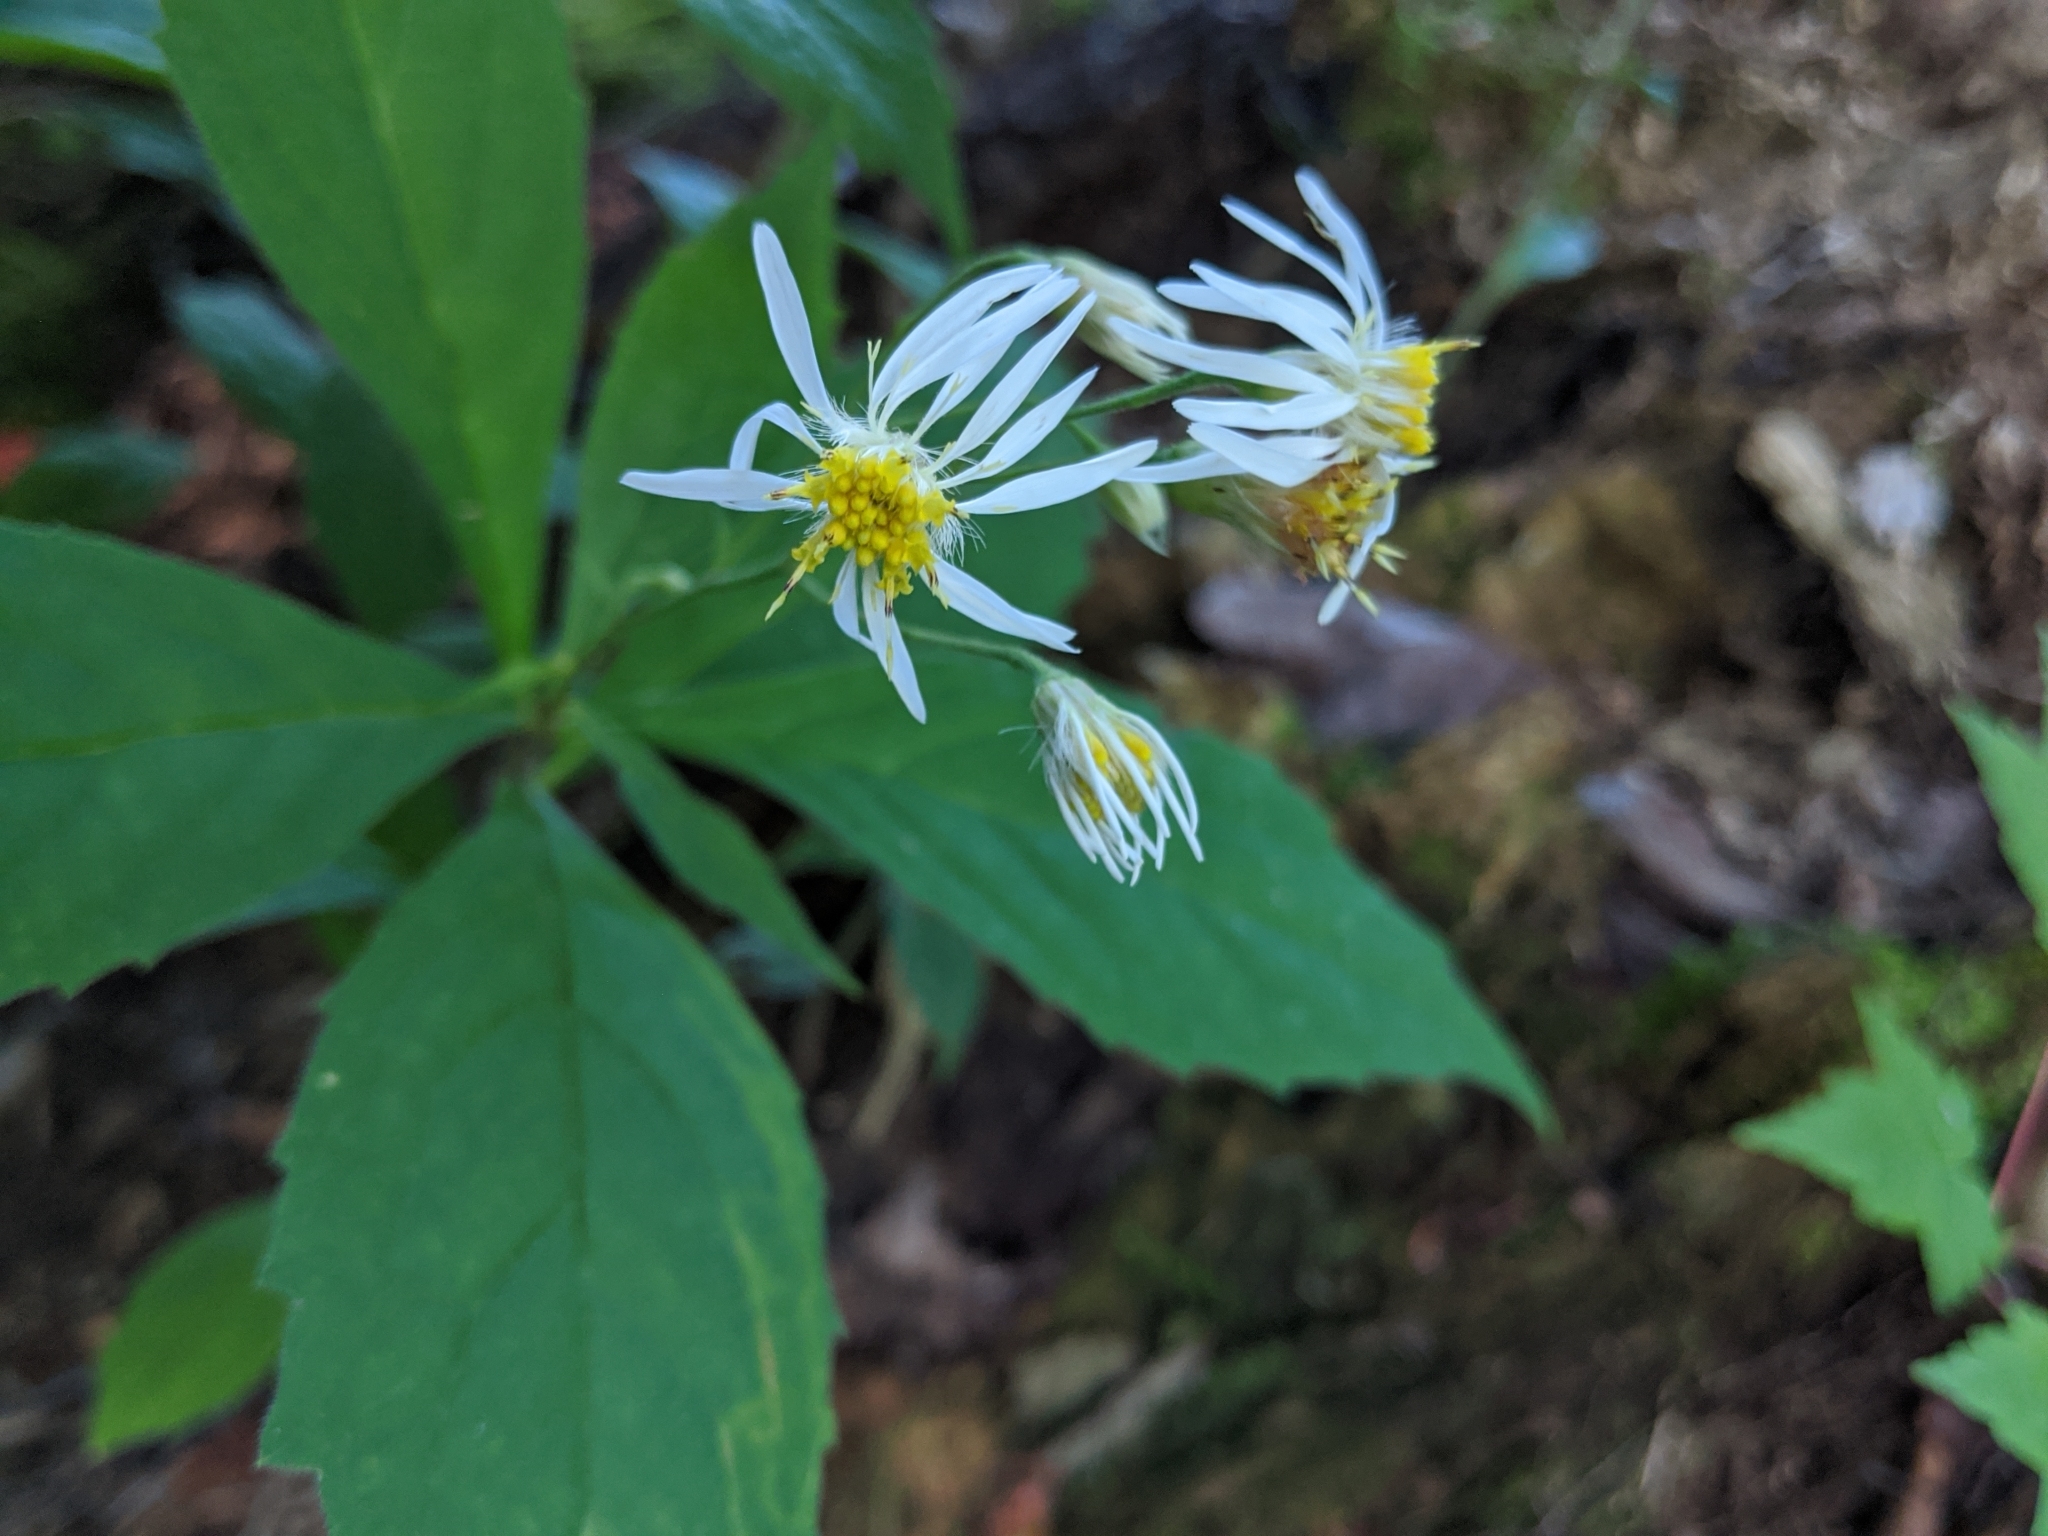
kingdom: Plantae
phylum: Tracheophyta
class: Magnoliopsida
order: Asterales
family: Asteraceae
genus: Oclemena
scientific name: Oclemena acuminata
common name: Mountain aster
